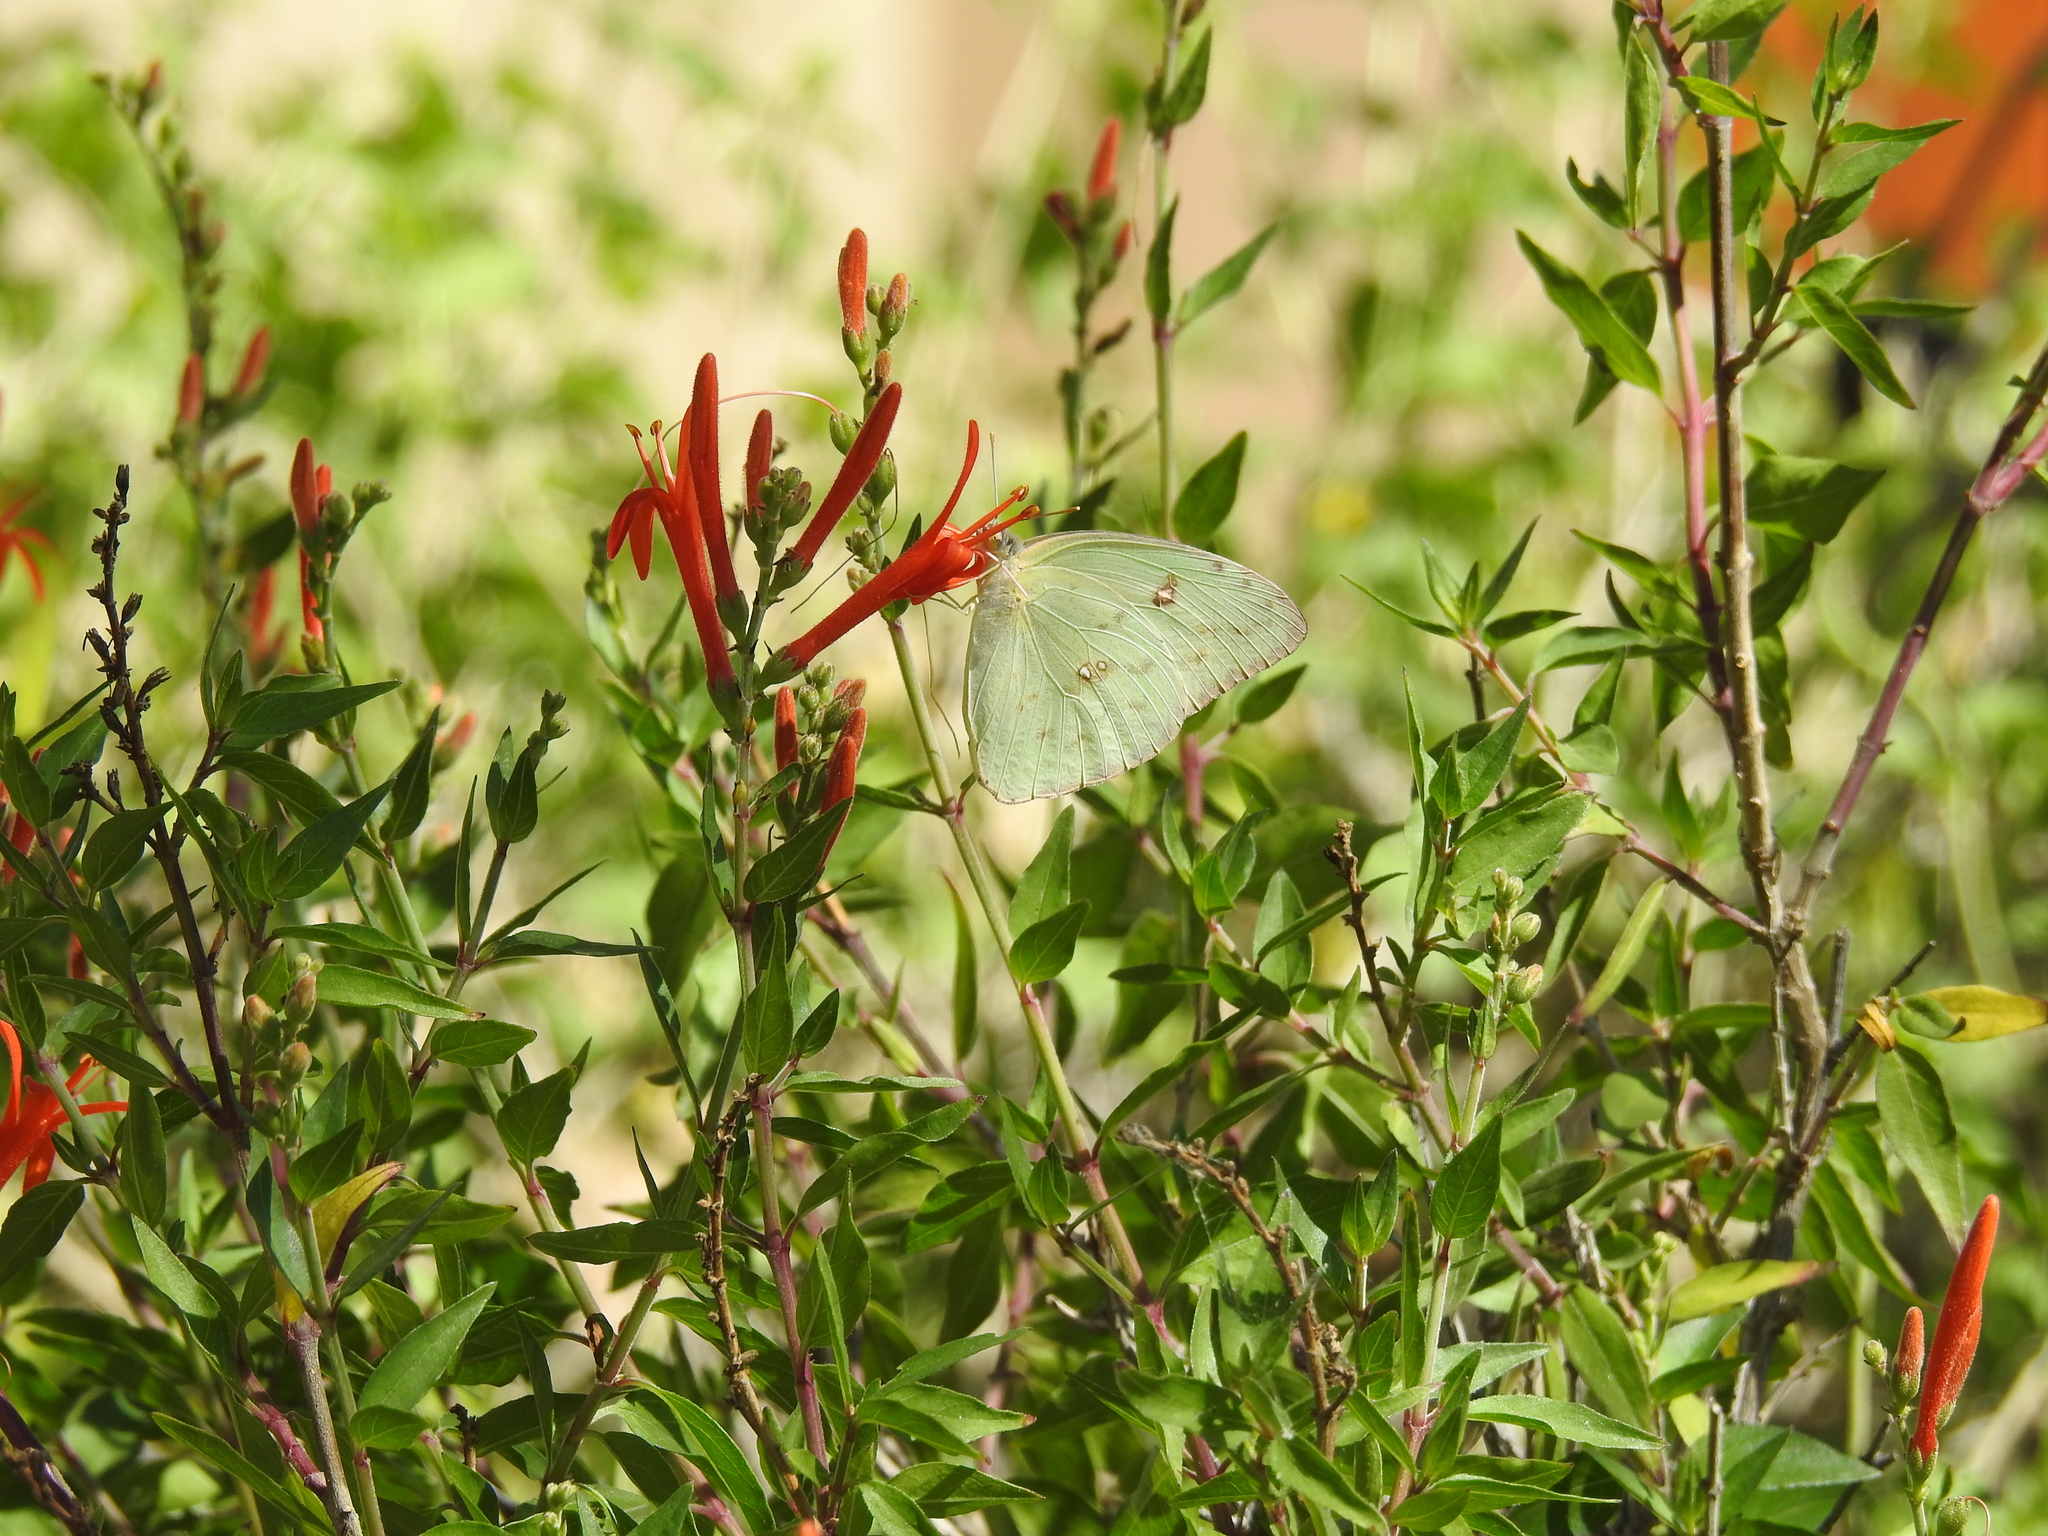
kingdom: Animalia
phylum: Arthropoda
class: Insecta
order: Lepidoptera
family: Pieridae
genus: Phoebis
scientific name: Phoebis sennae
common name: Cloudless sulphur
